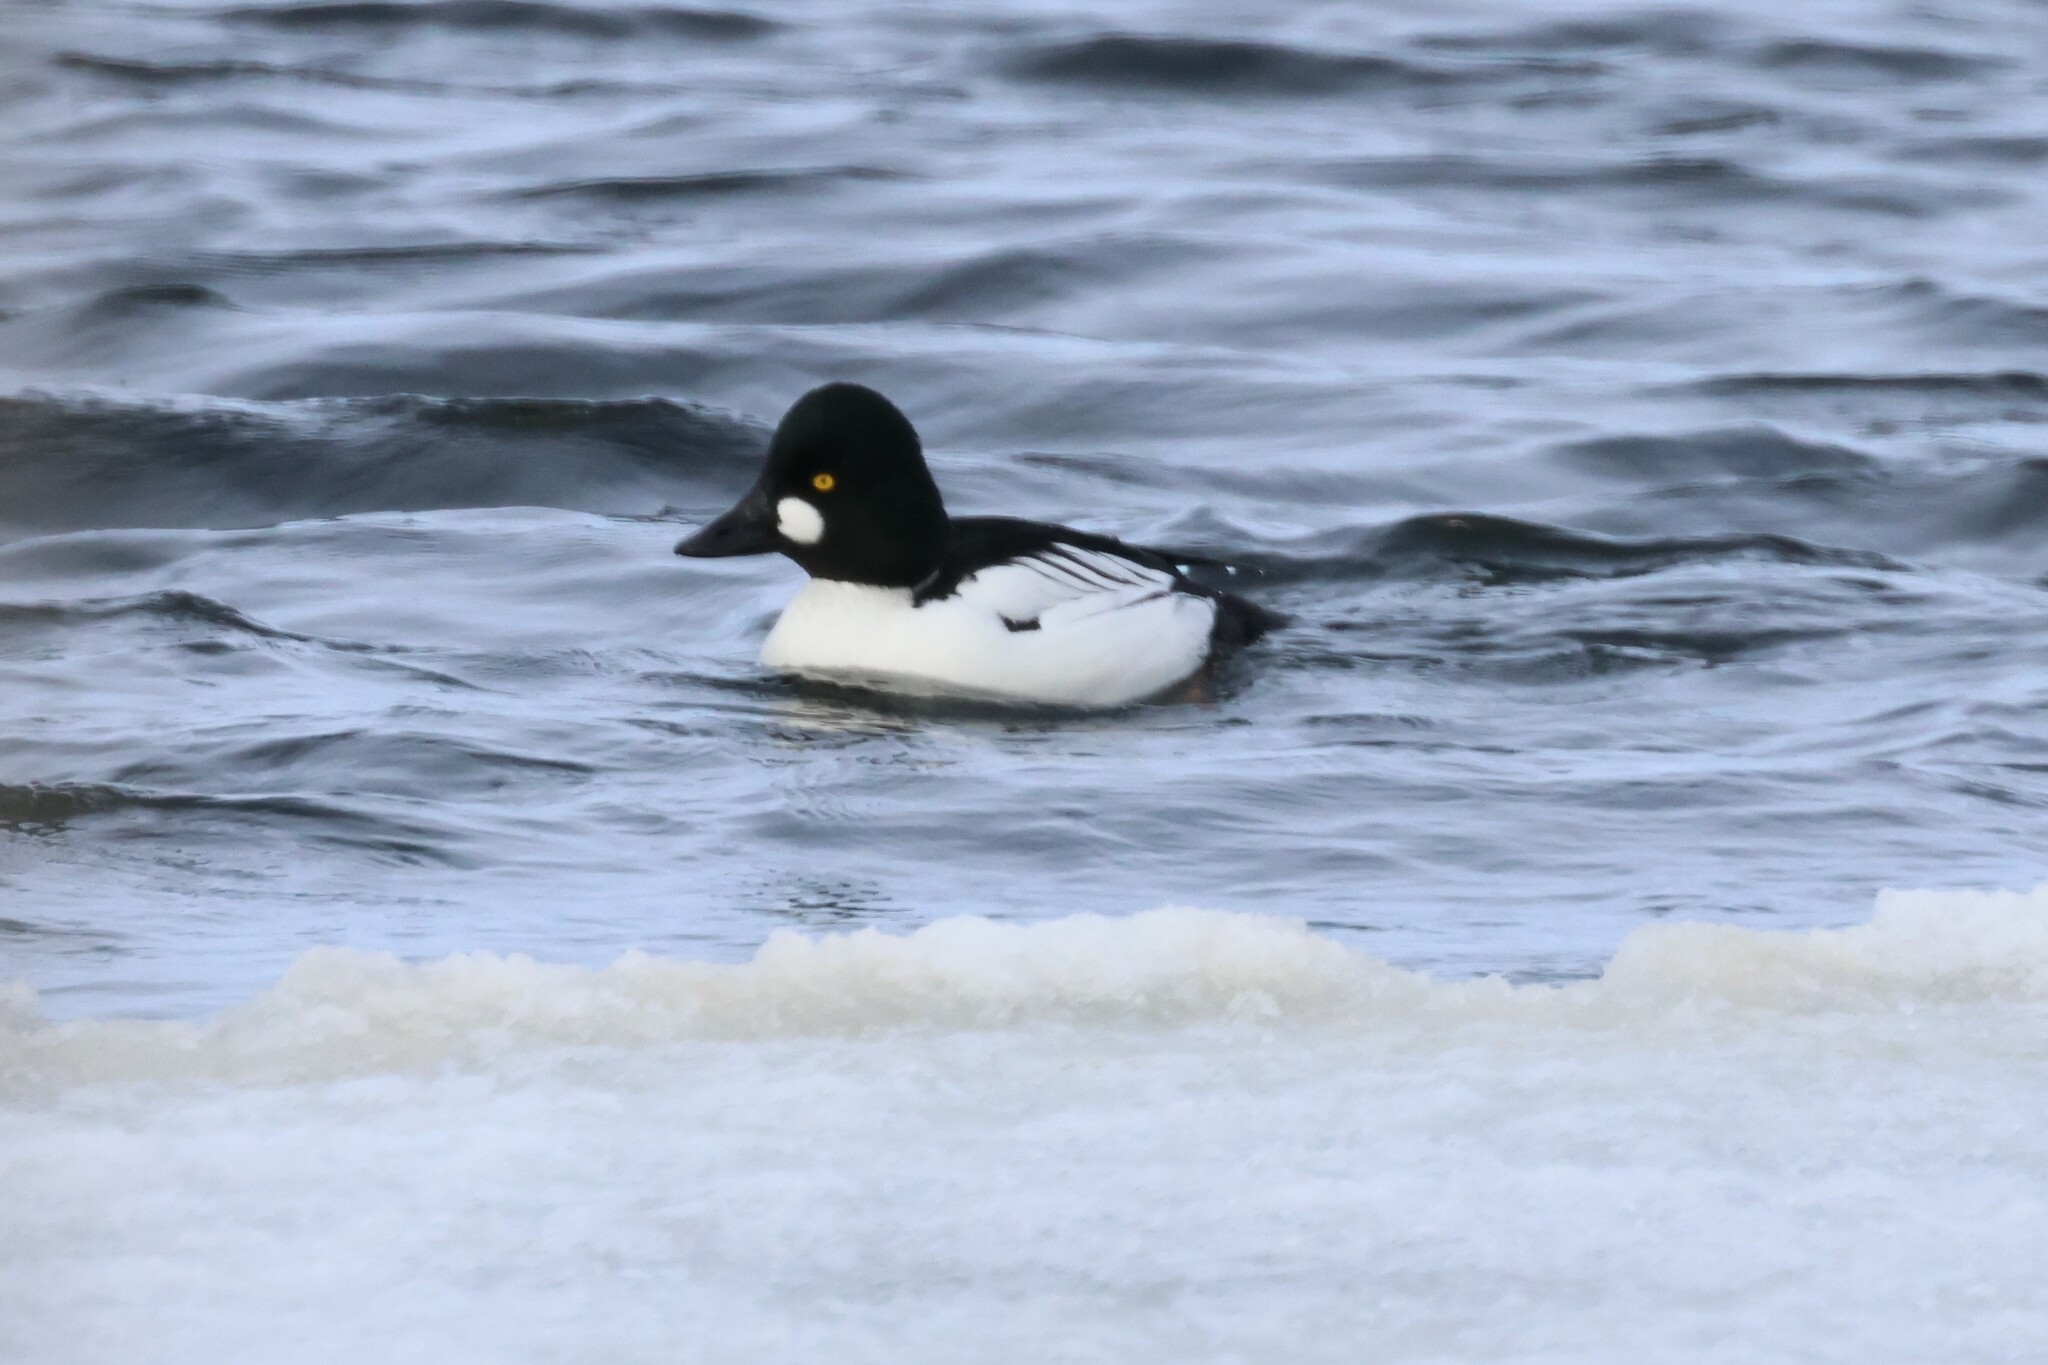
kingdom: Animalia
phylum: Chordata
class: Aves
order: Anseriformes
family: Anatidae
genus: Bucephala
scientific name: Bucephala clangula
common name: Common goldeneye
